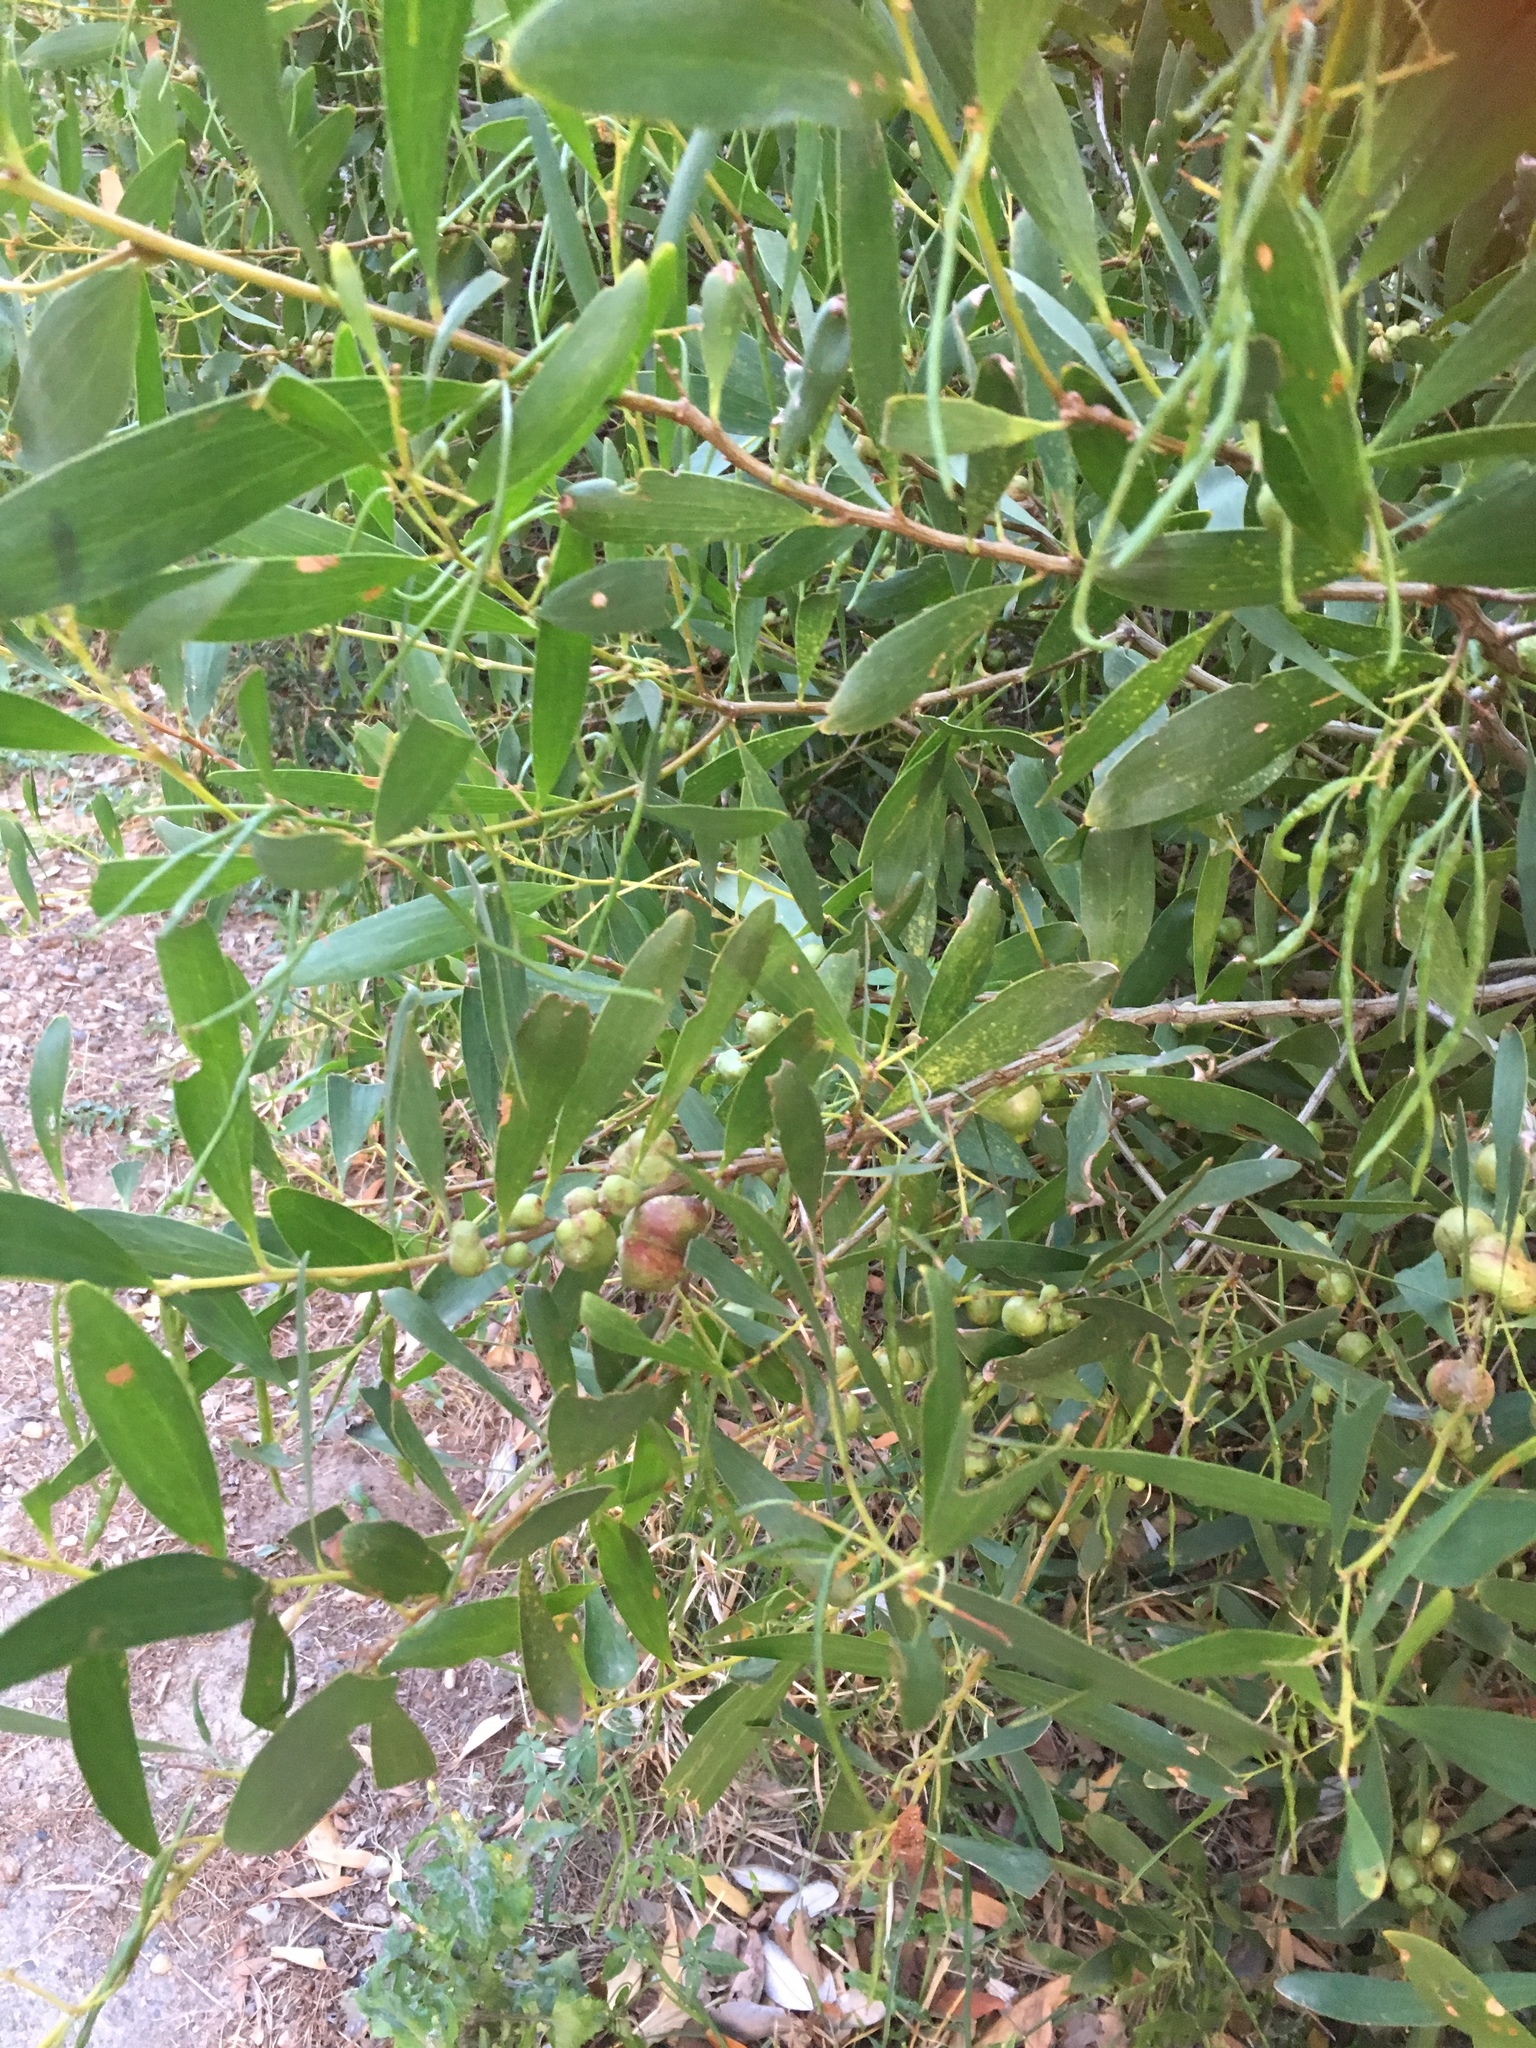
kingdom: Plantae
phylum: Tracheophyta
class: Magnoliopsida
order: Fabales
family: Fabaceae
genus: Acacia
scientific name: Acacia longifolia
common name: Sydney golden wattle
